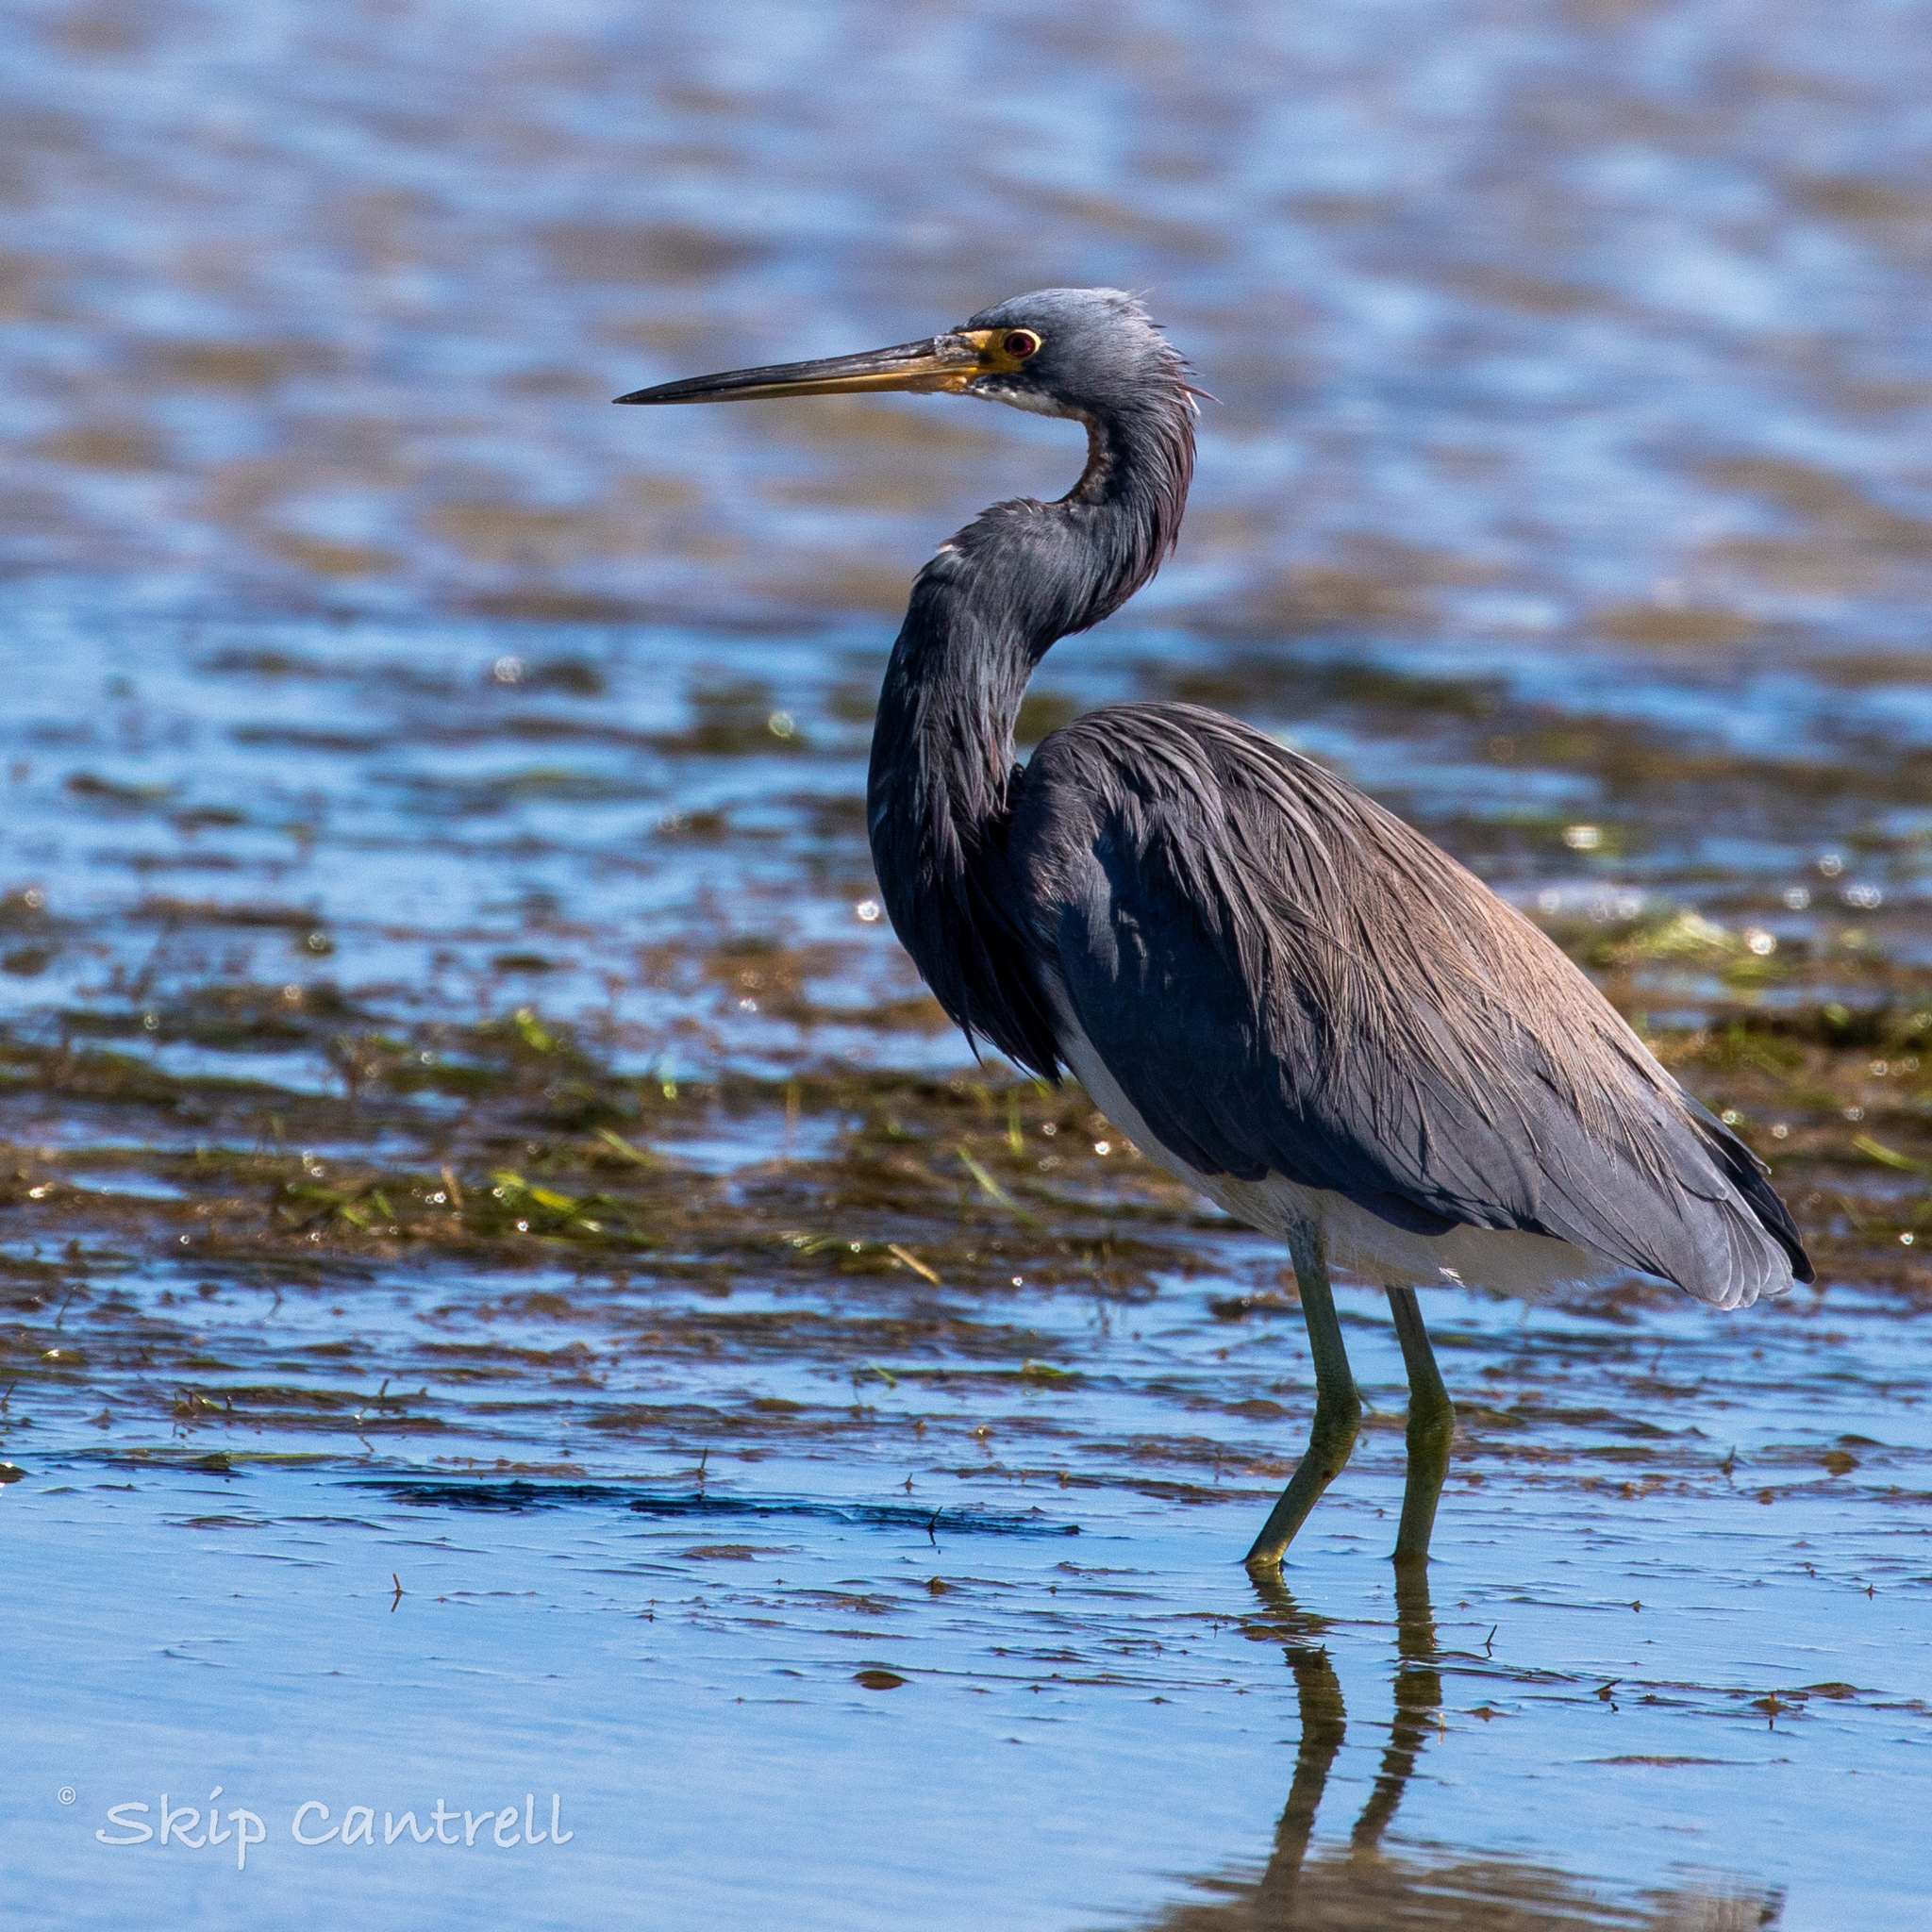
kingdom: Animalia
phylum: Chordata
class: Aves
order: Pelecaniformes
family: Ardeidae
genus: Egretta
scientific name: Egretta tricolor
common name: Tricolored heron
